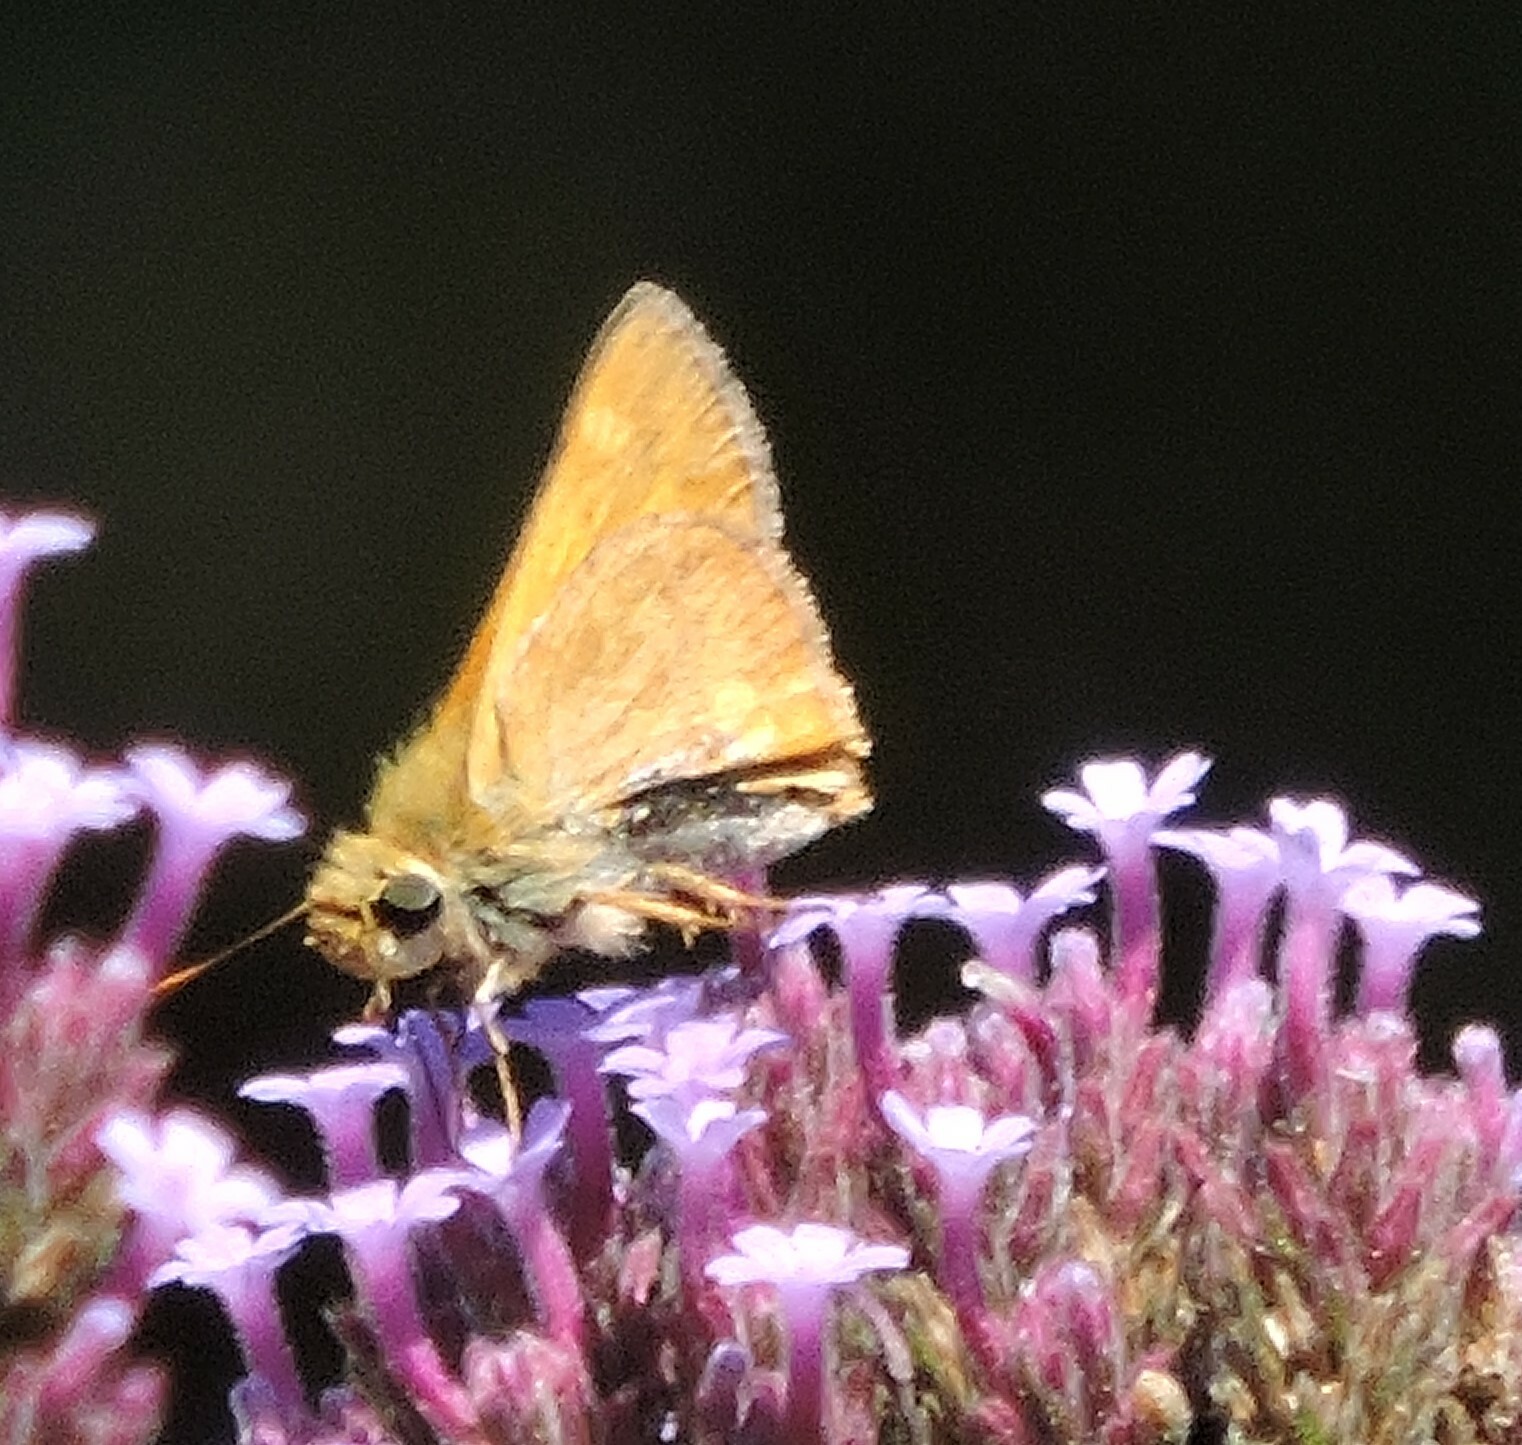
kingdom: Animalia
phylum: Arthropoda
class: Insecta
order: Lepidoptera
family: Hesperiidae
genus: Ochlodes
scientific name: Ochlodes sylvanoides
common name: Woodland skipper
